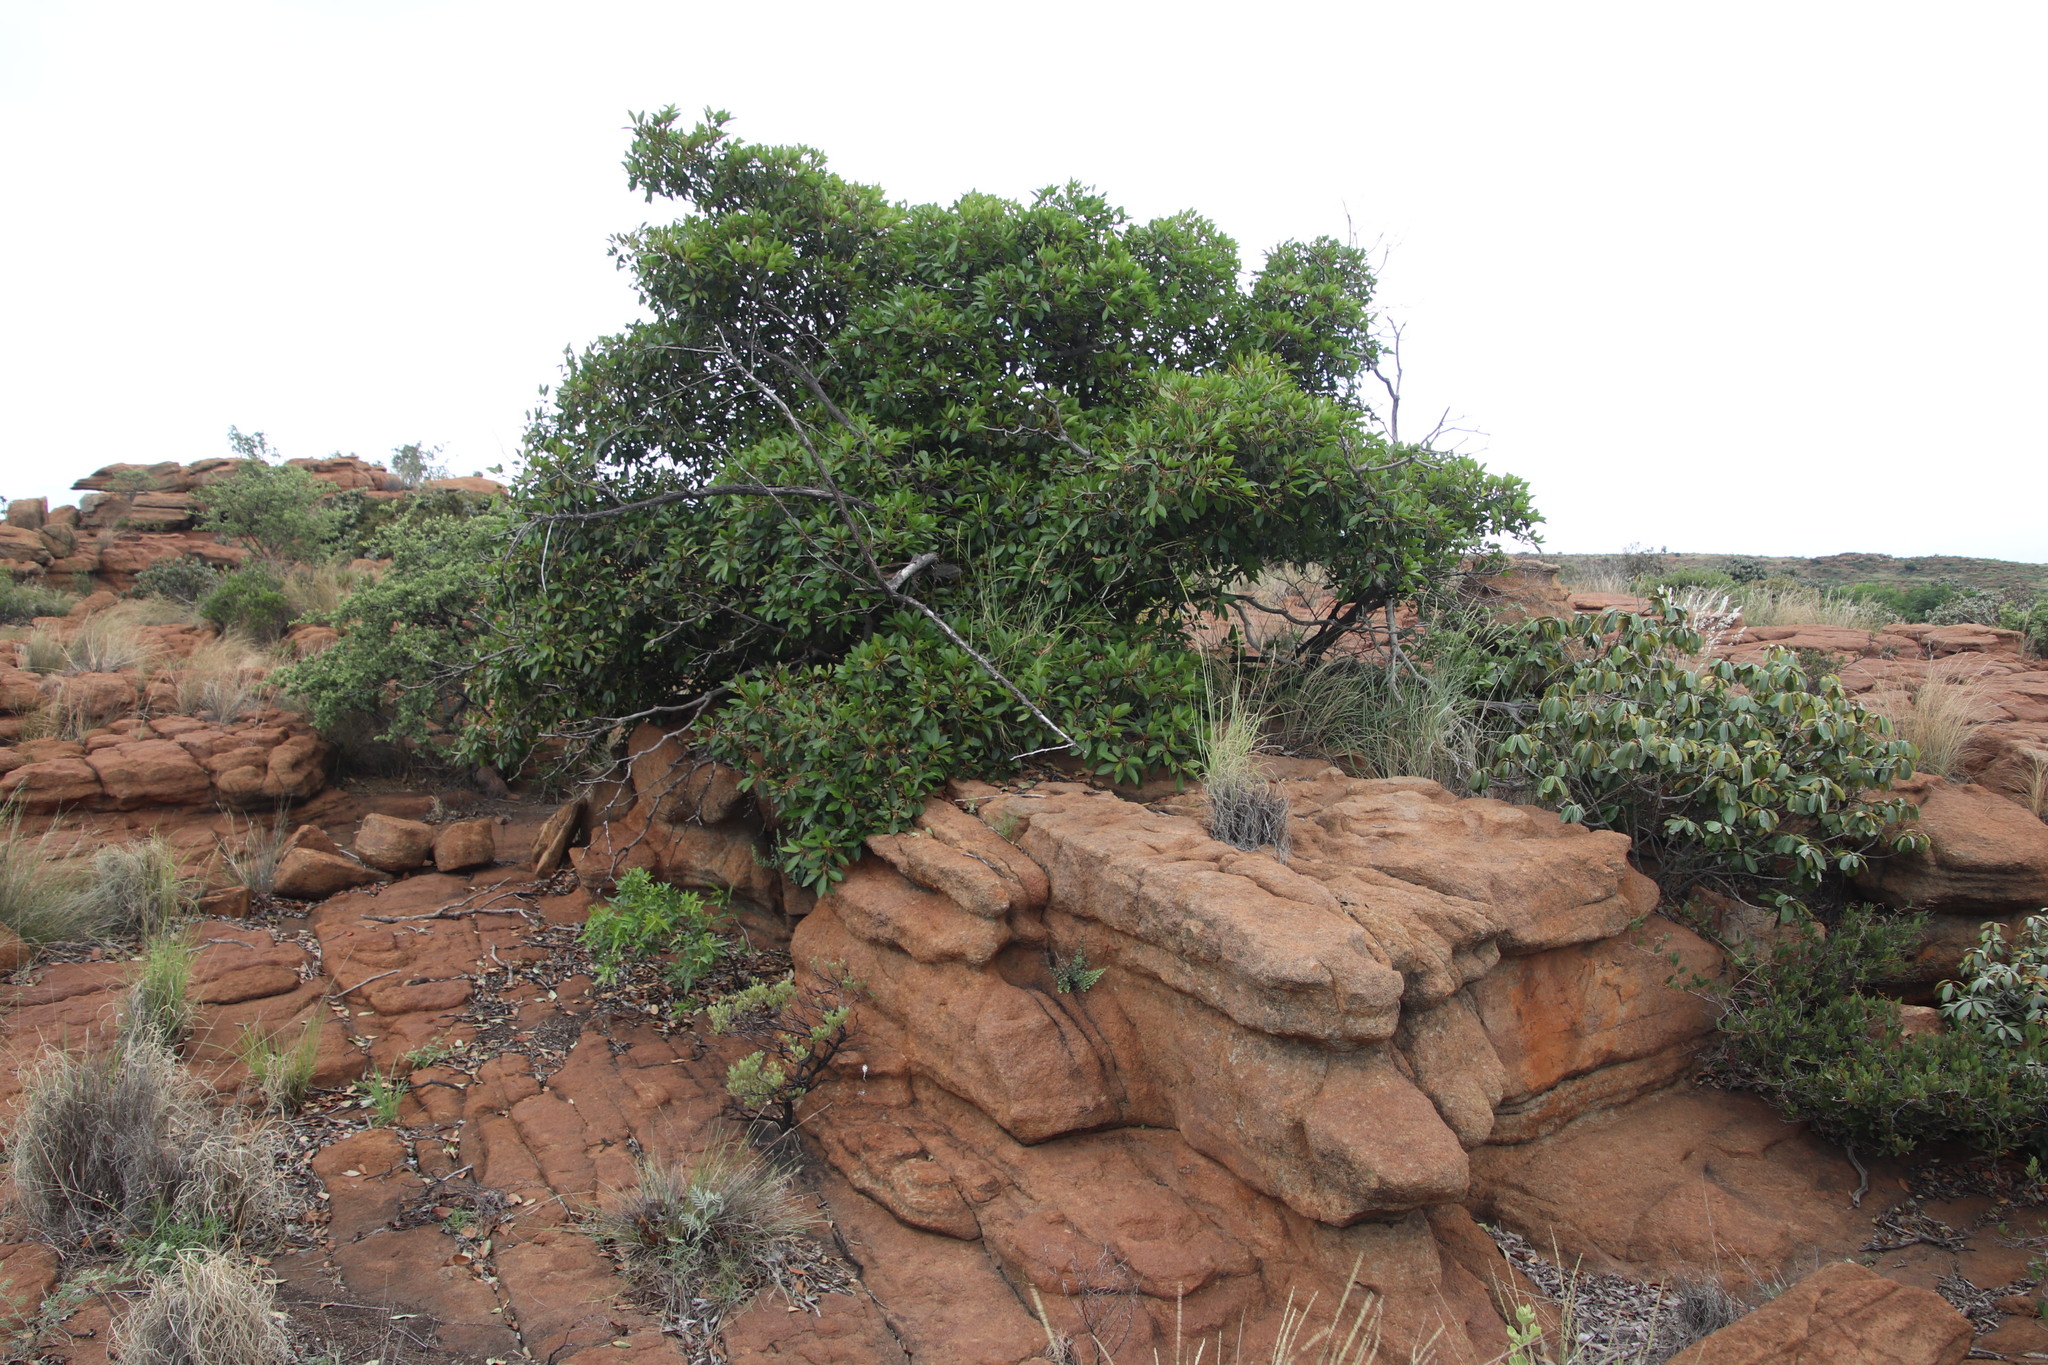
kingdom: Plantae
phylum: Tracheophyta
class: Magnoliopsida
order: Ericales
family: Sapotaceae
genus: Mimusops
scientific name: Mimusops zeyheri
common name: Transvaal red milkwood
